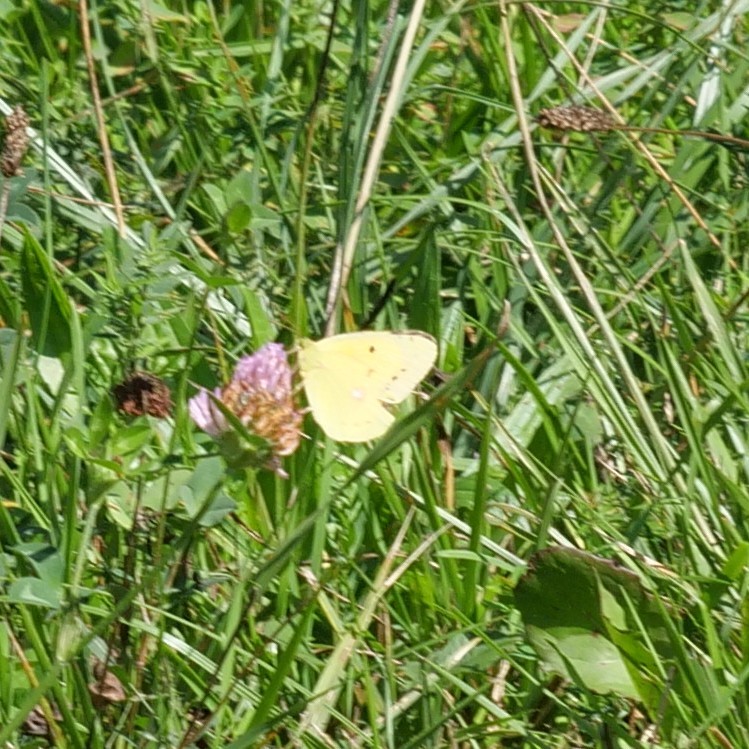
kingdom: Animalia
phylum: Arthropoda
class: Insecta
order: Lepidoptera
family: Pieridae
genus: Colias
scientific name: Colias croceus
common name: Clouded yellow
